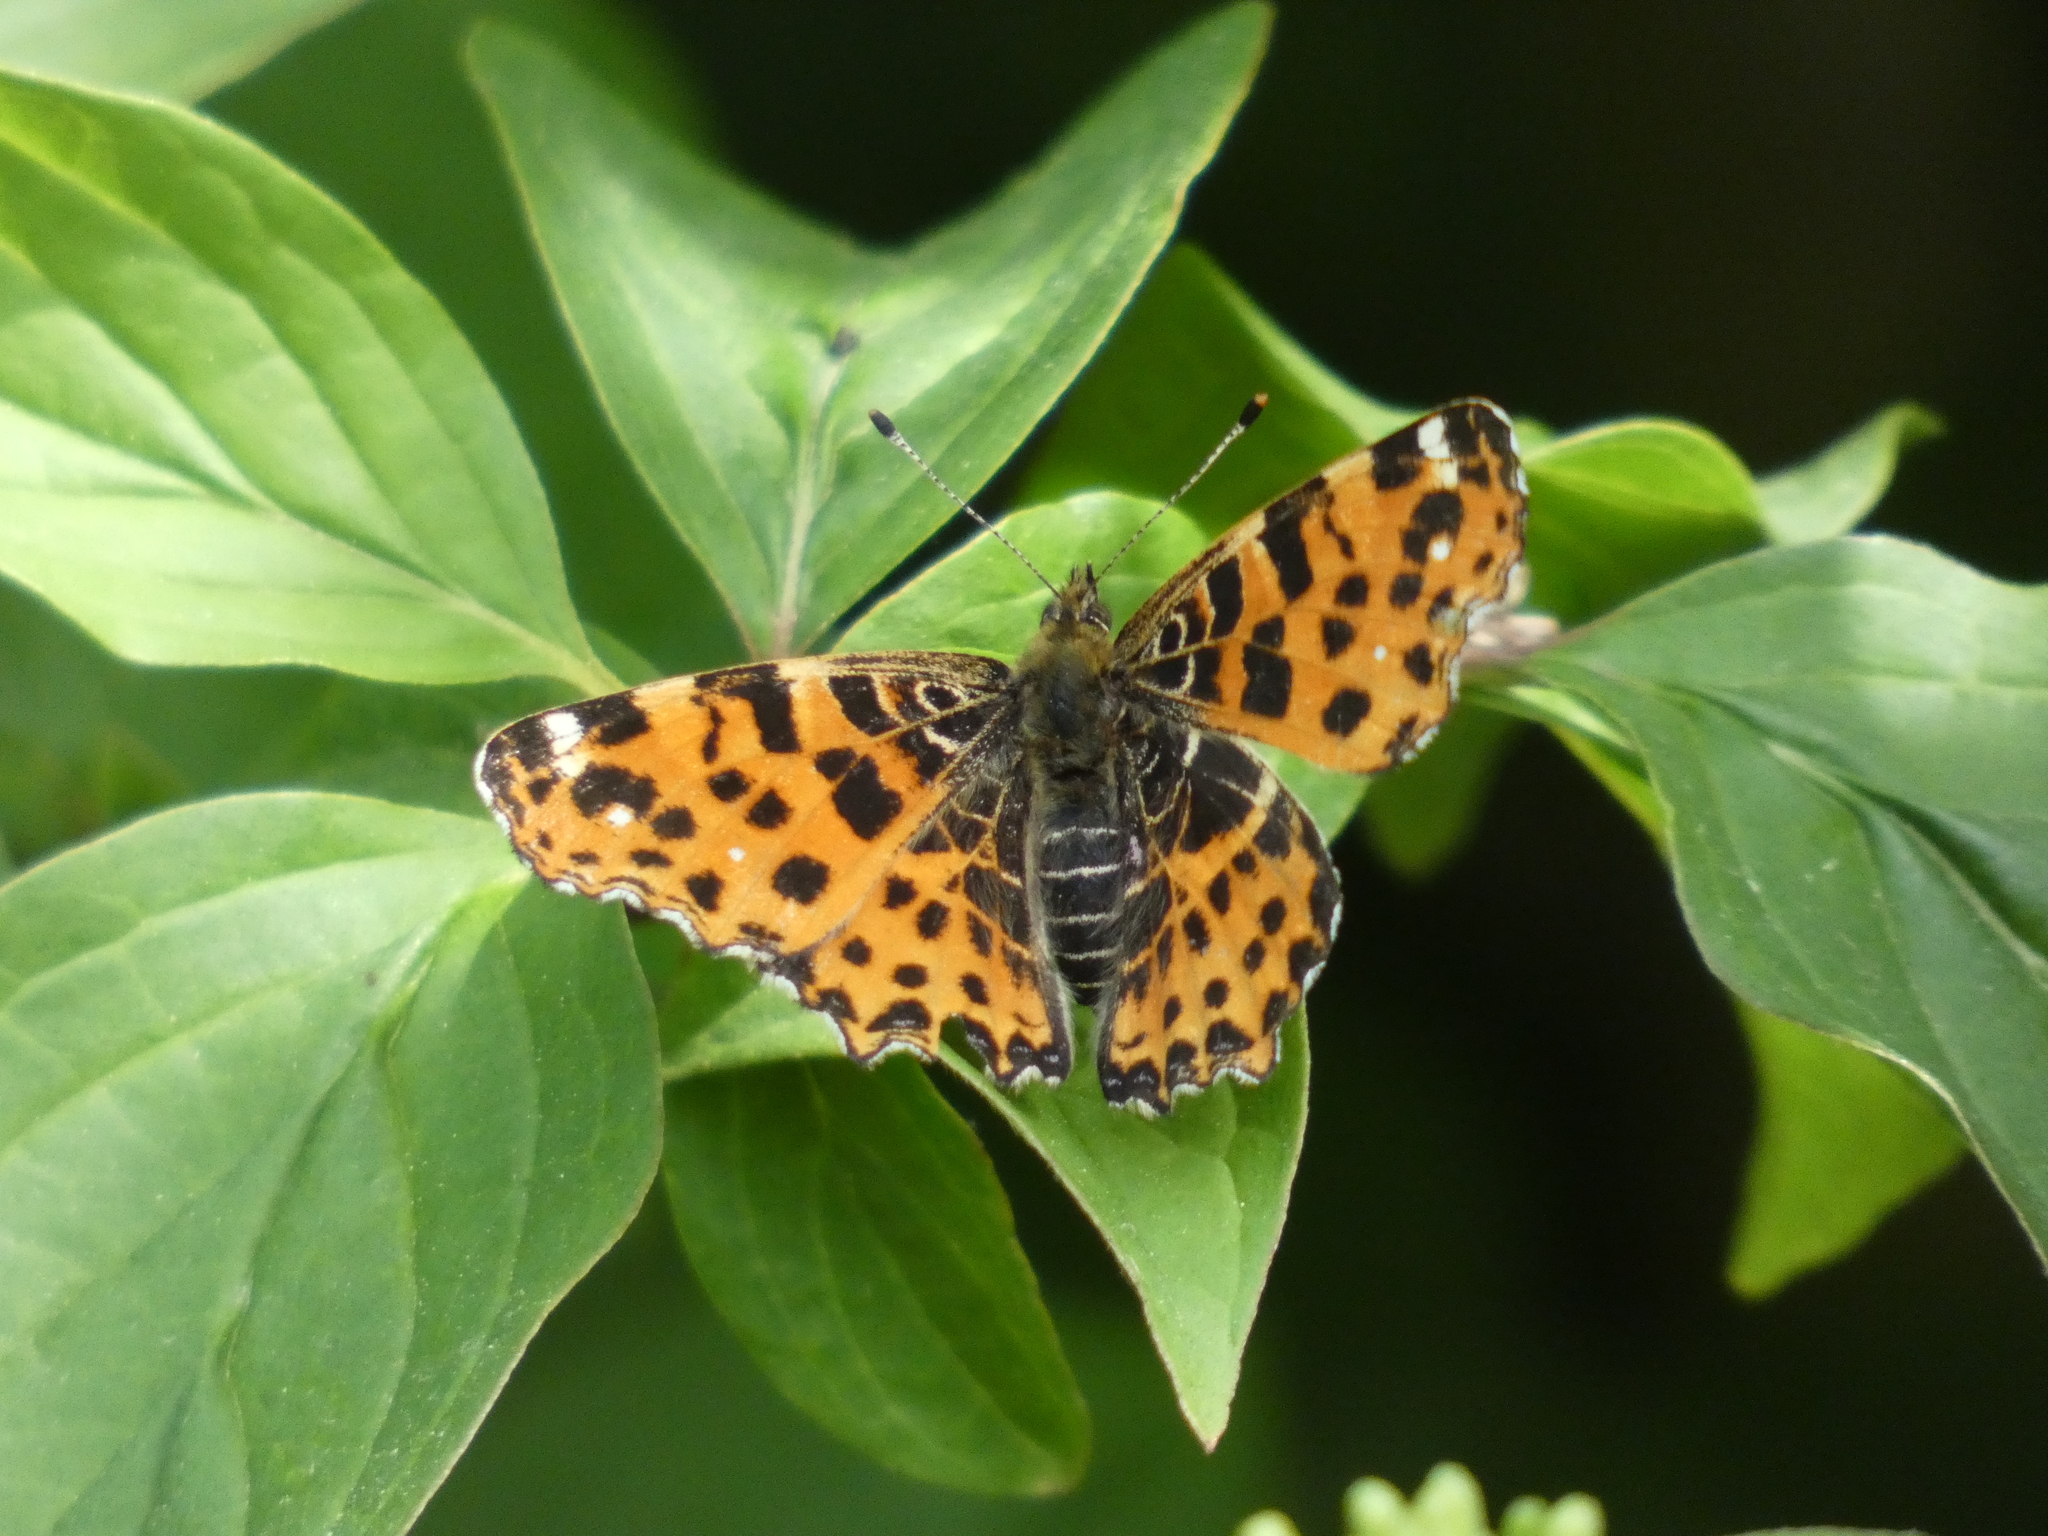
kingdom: Animalia
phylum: Arthropoda
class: Insecta
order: Lepidoptera
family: Nymphalidae
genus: Araschnia
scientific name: Araschnia levana
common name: Map butterfly
